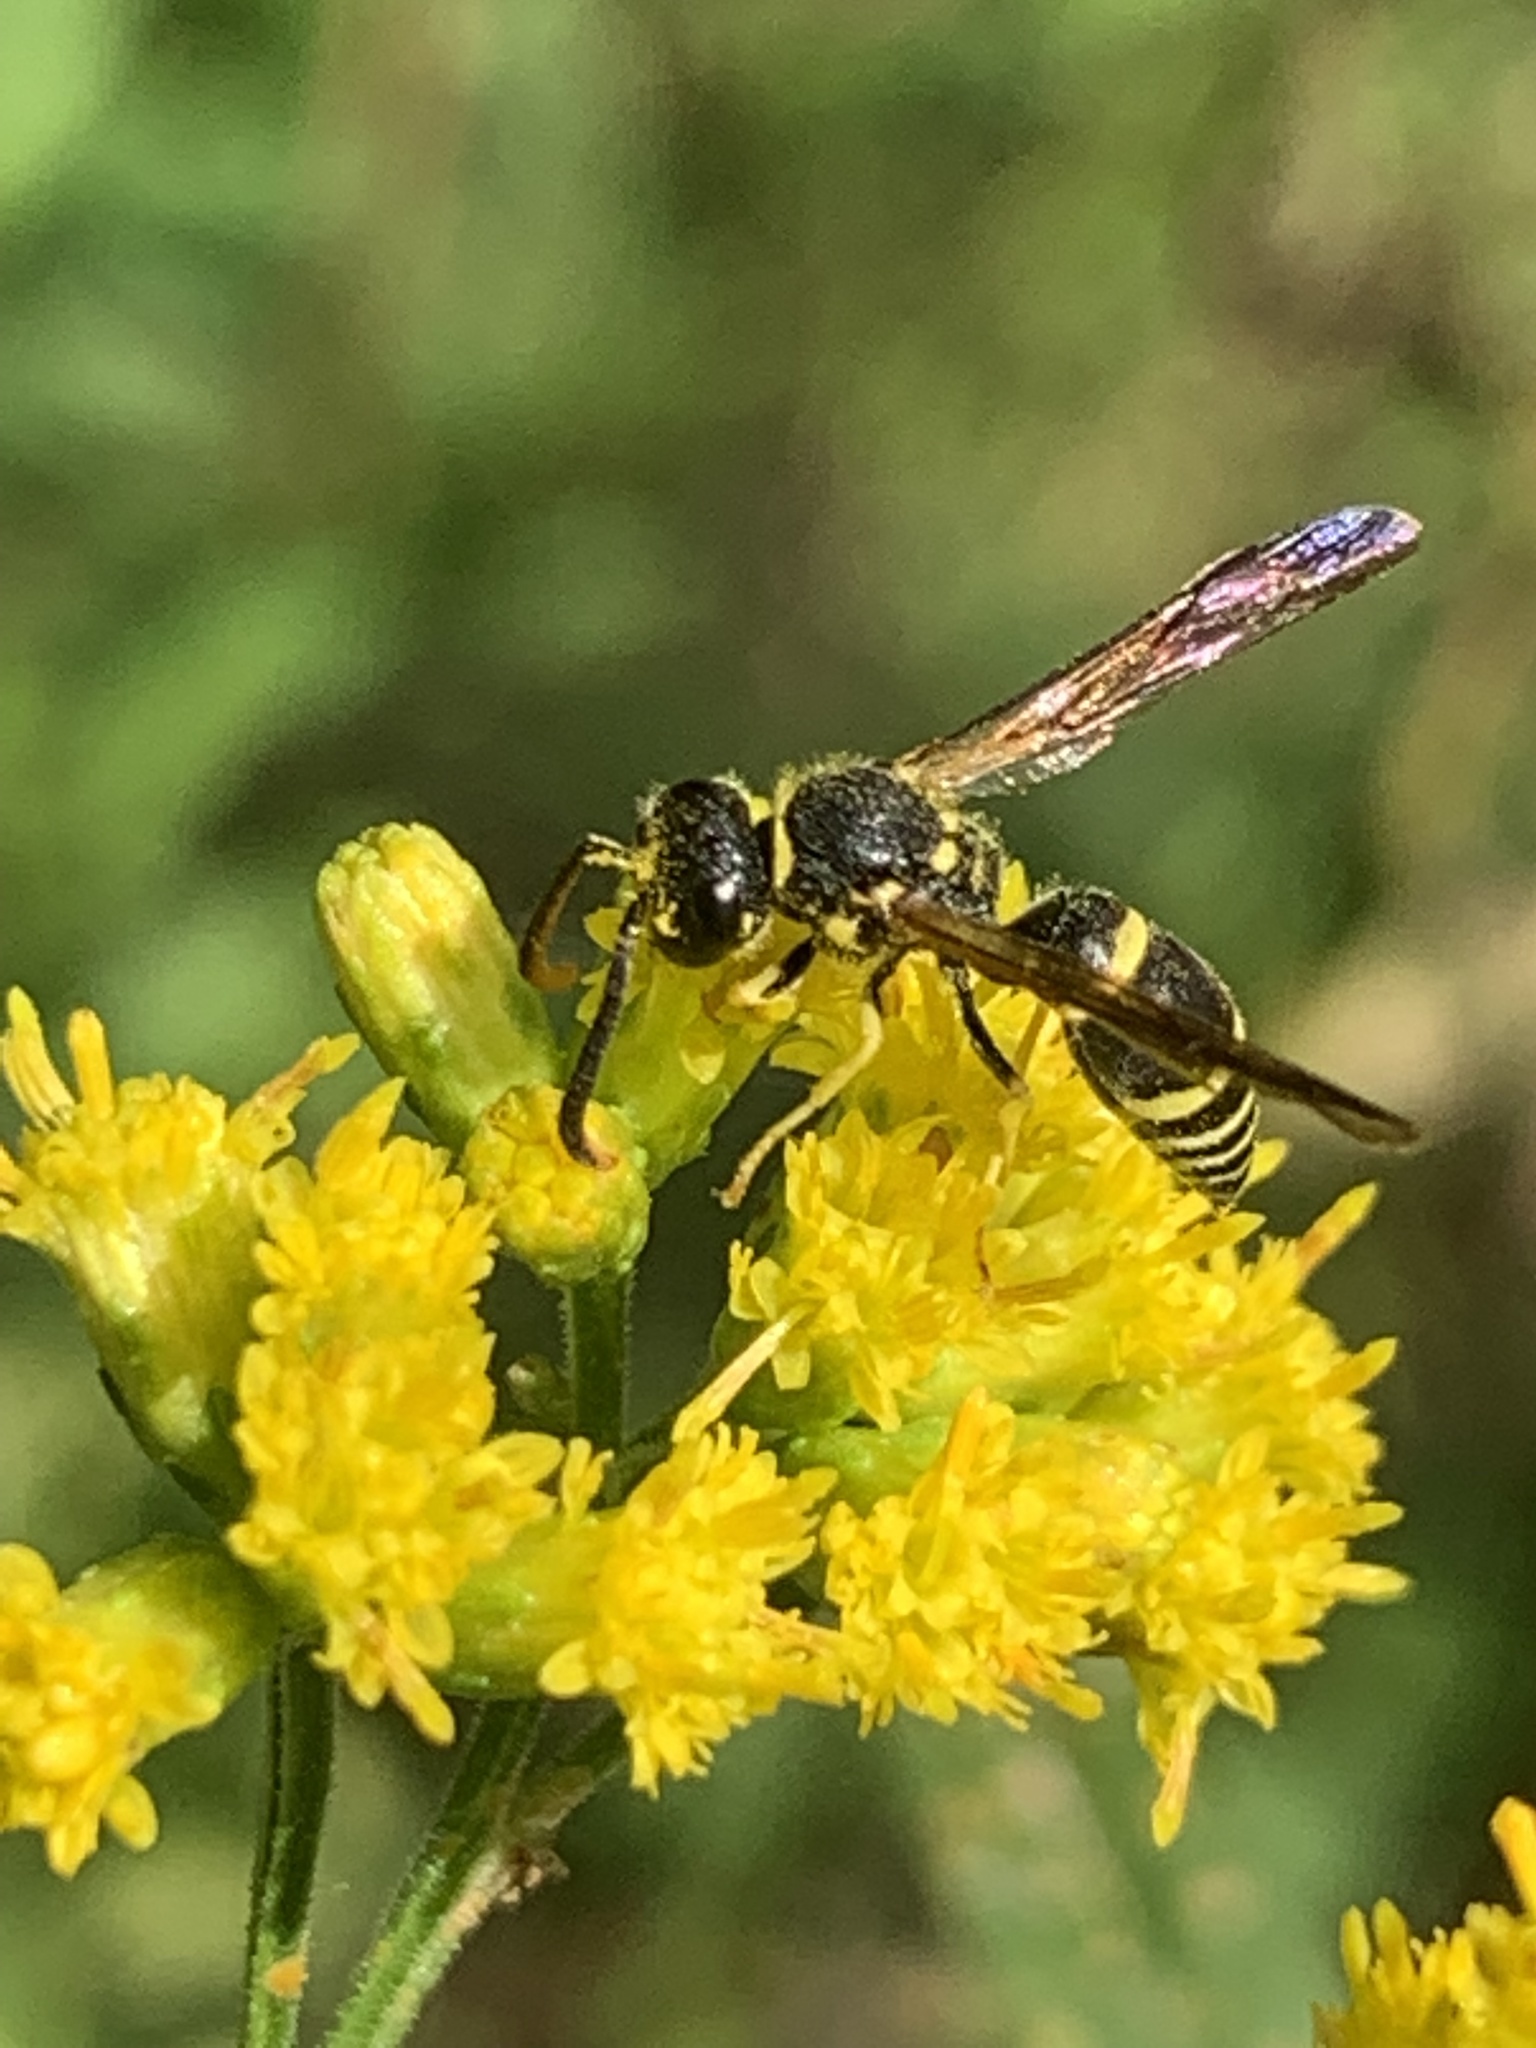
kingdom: Animalia
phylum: Arthropoda
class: Insecta
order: Hymenoptera
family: Vespidae
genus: Ancistrocerus
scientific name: Ancistrocerus adiabatus
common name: Bramble mason wasp
